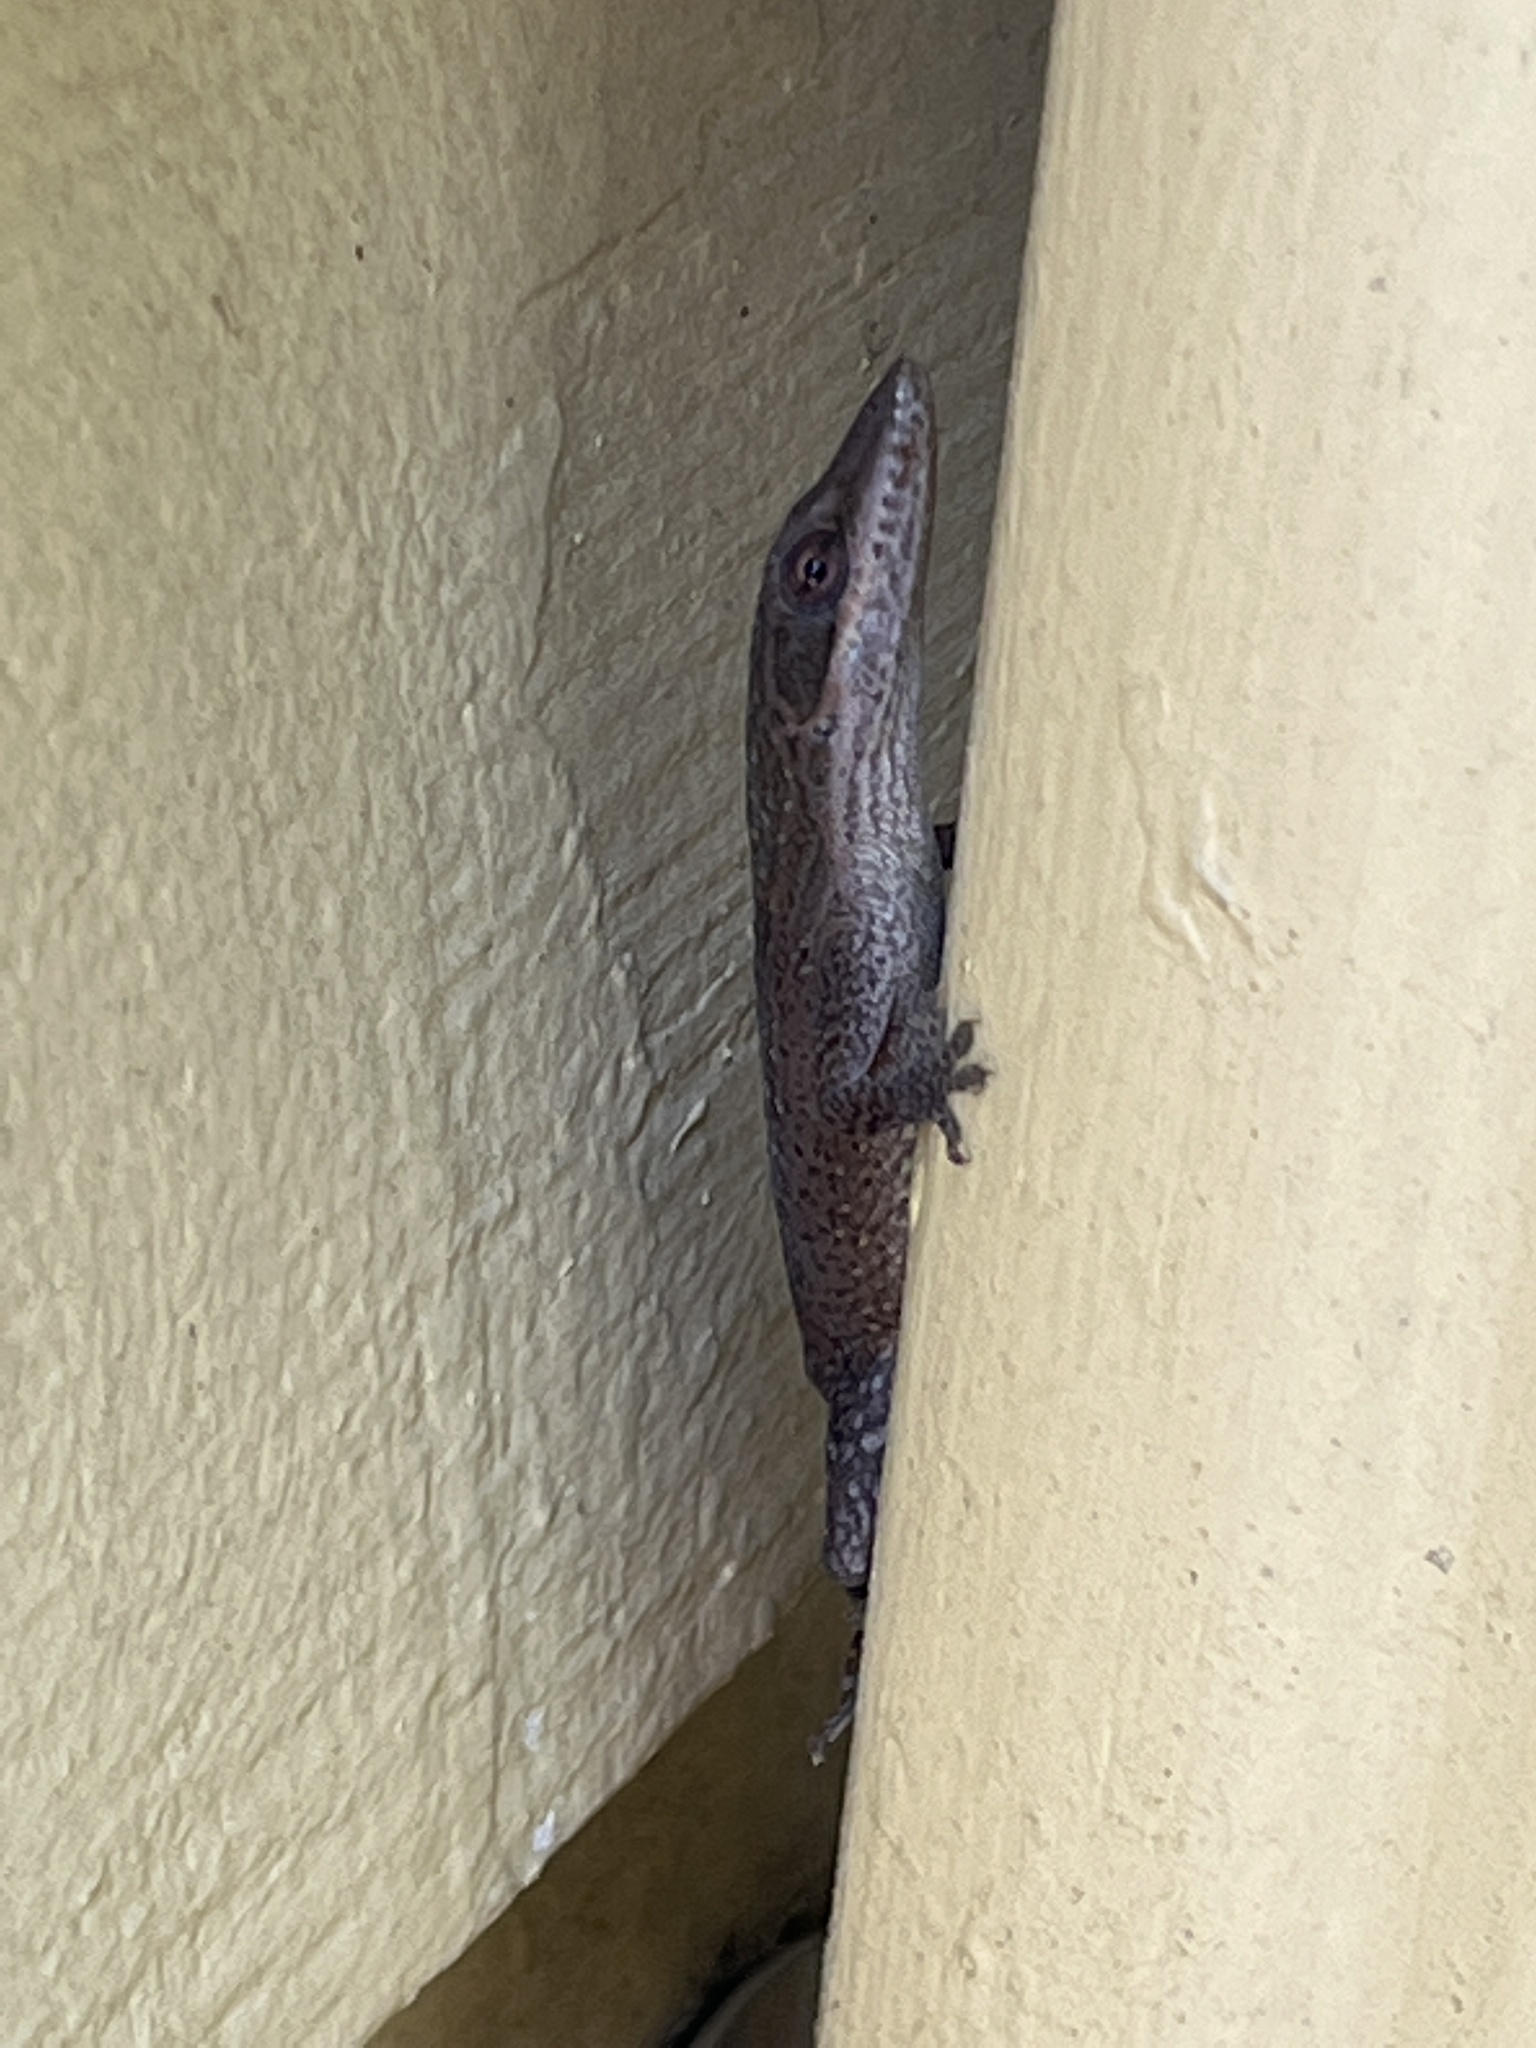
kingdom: Animalia
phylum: Chordata
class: Squamata
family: Dactyloidae
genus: Anolis
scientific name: Anolis carolinensis
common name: Green anole
